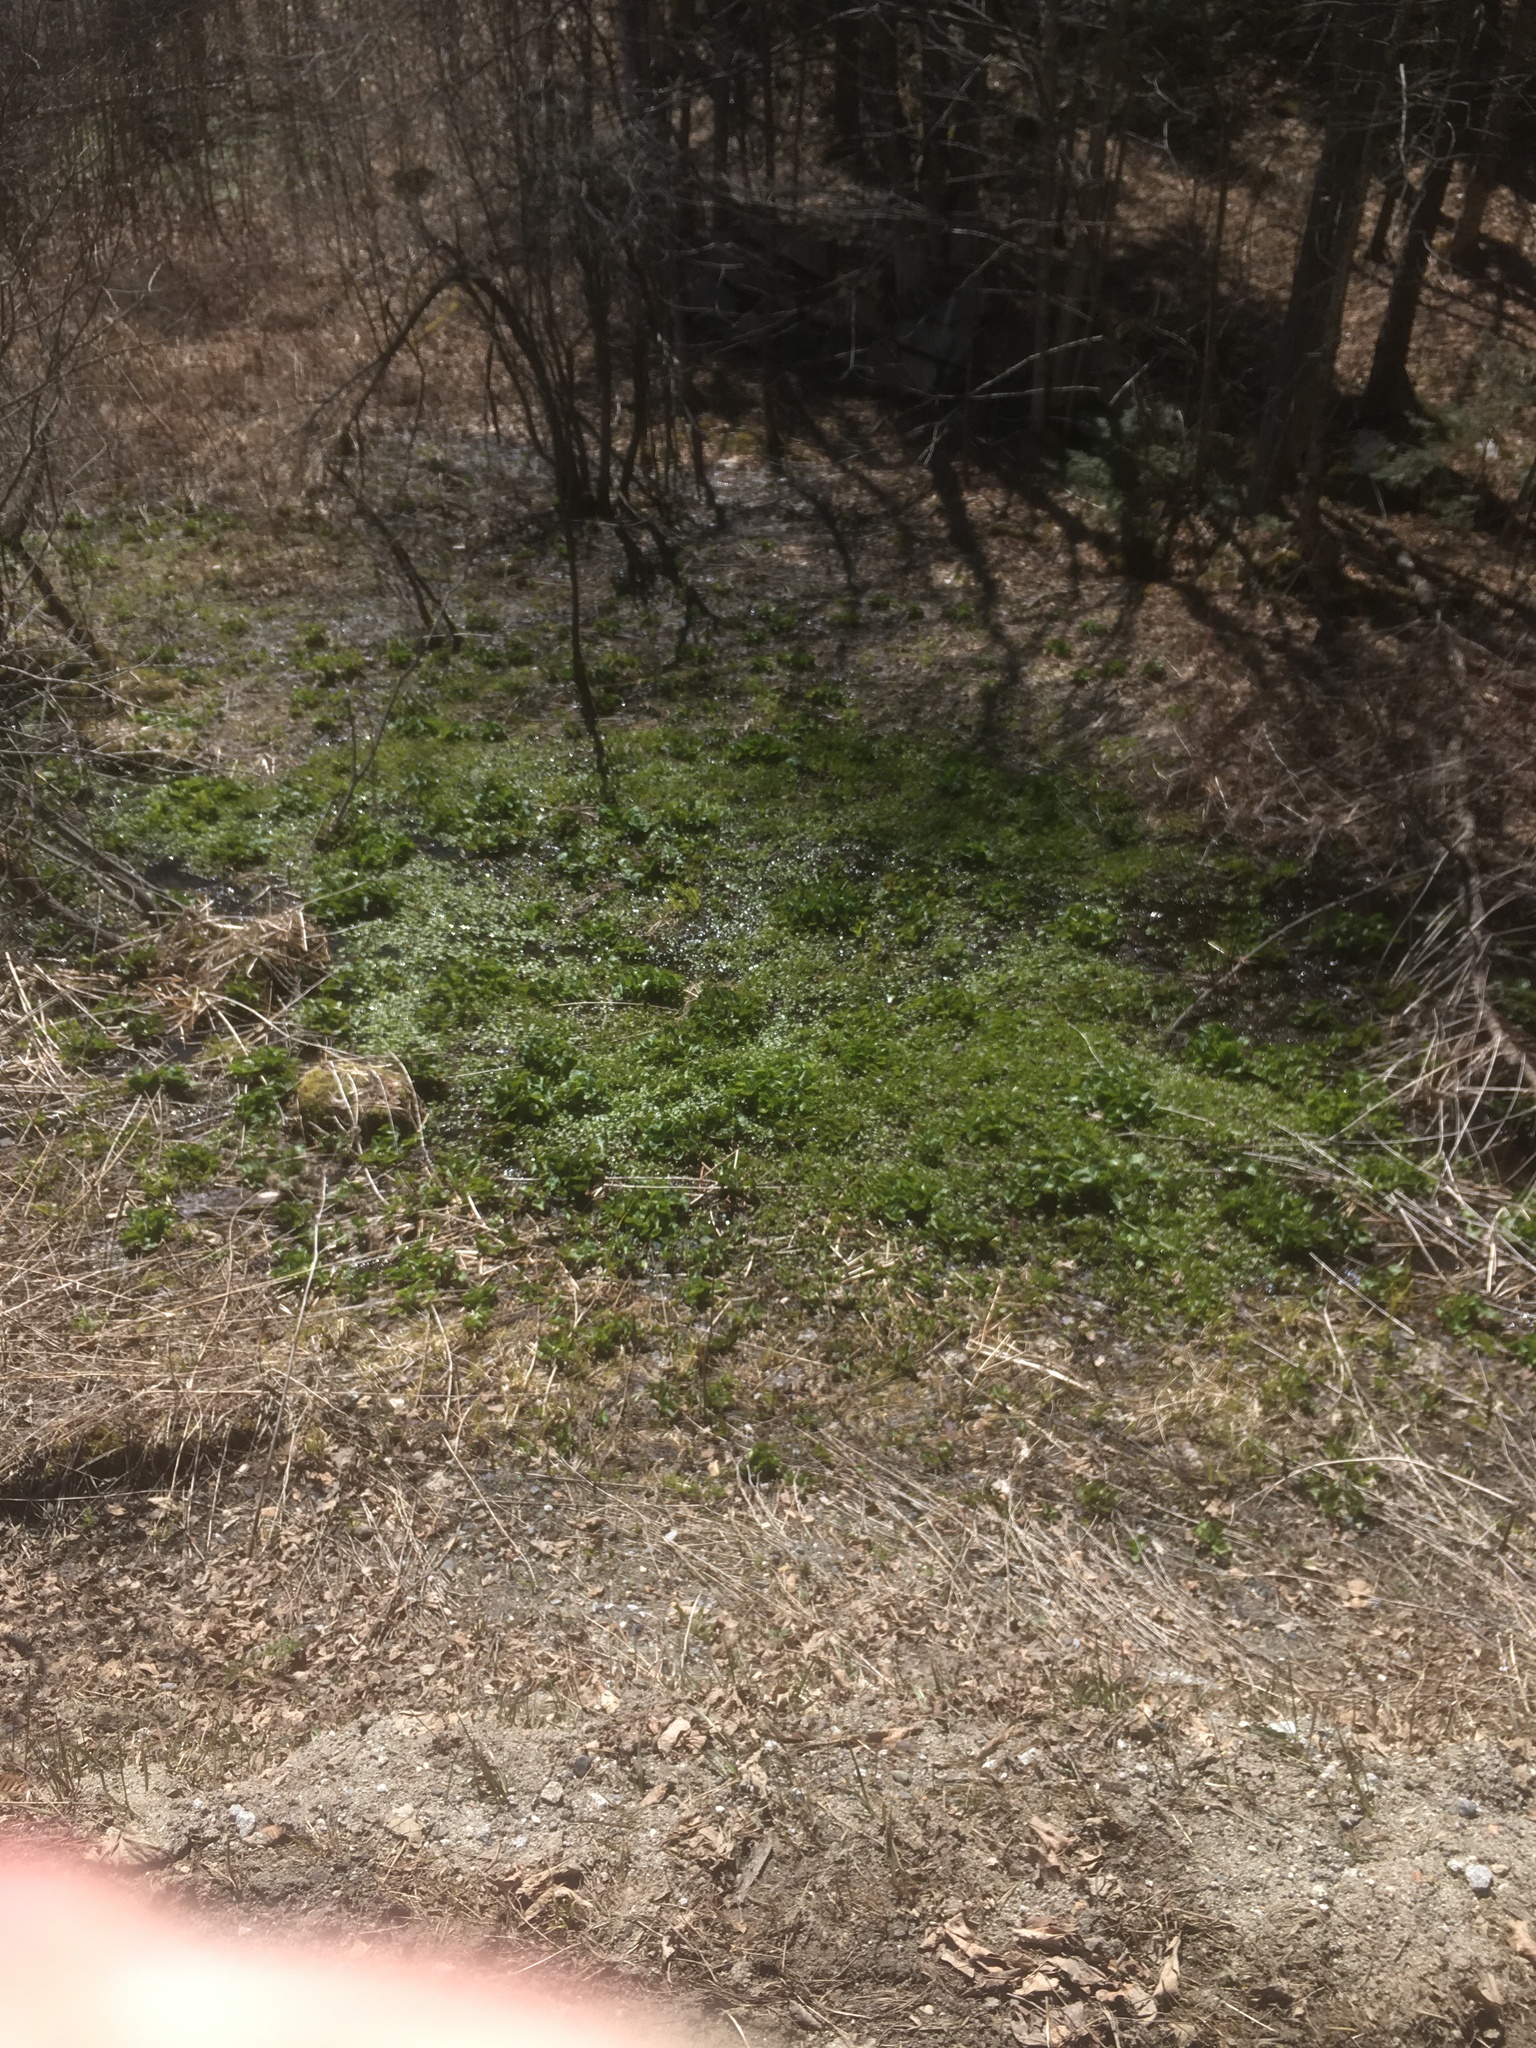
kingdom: Plantae
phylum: Tracheophyta
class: Magnoliopsida
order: Ranunculales
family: Ranunculaceae
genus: Caltha
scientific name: Caltha palustris
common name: Marsh marigold
